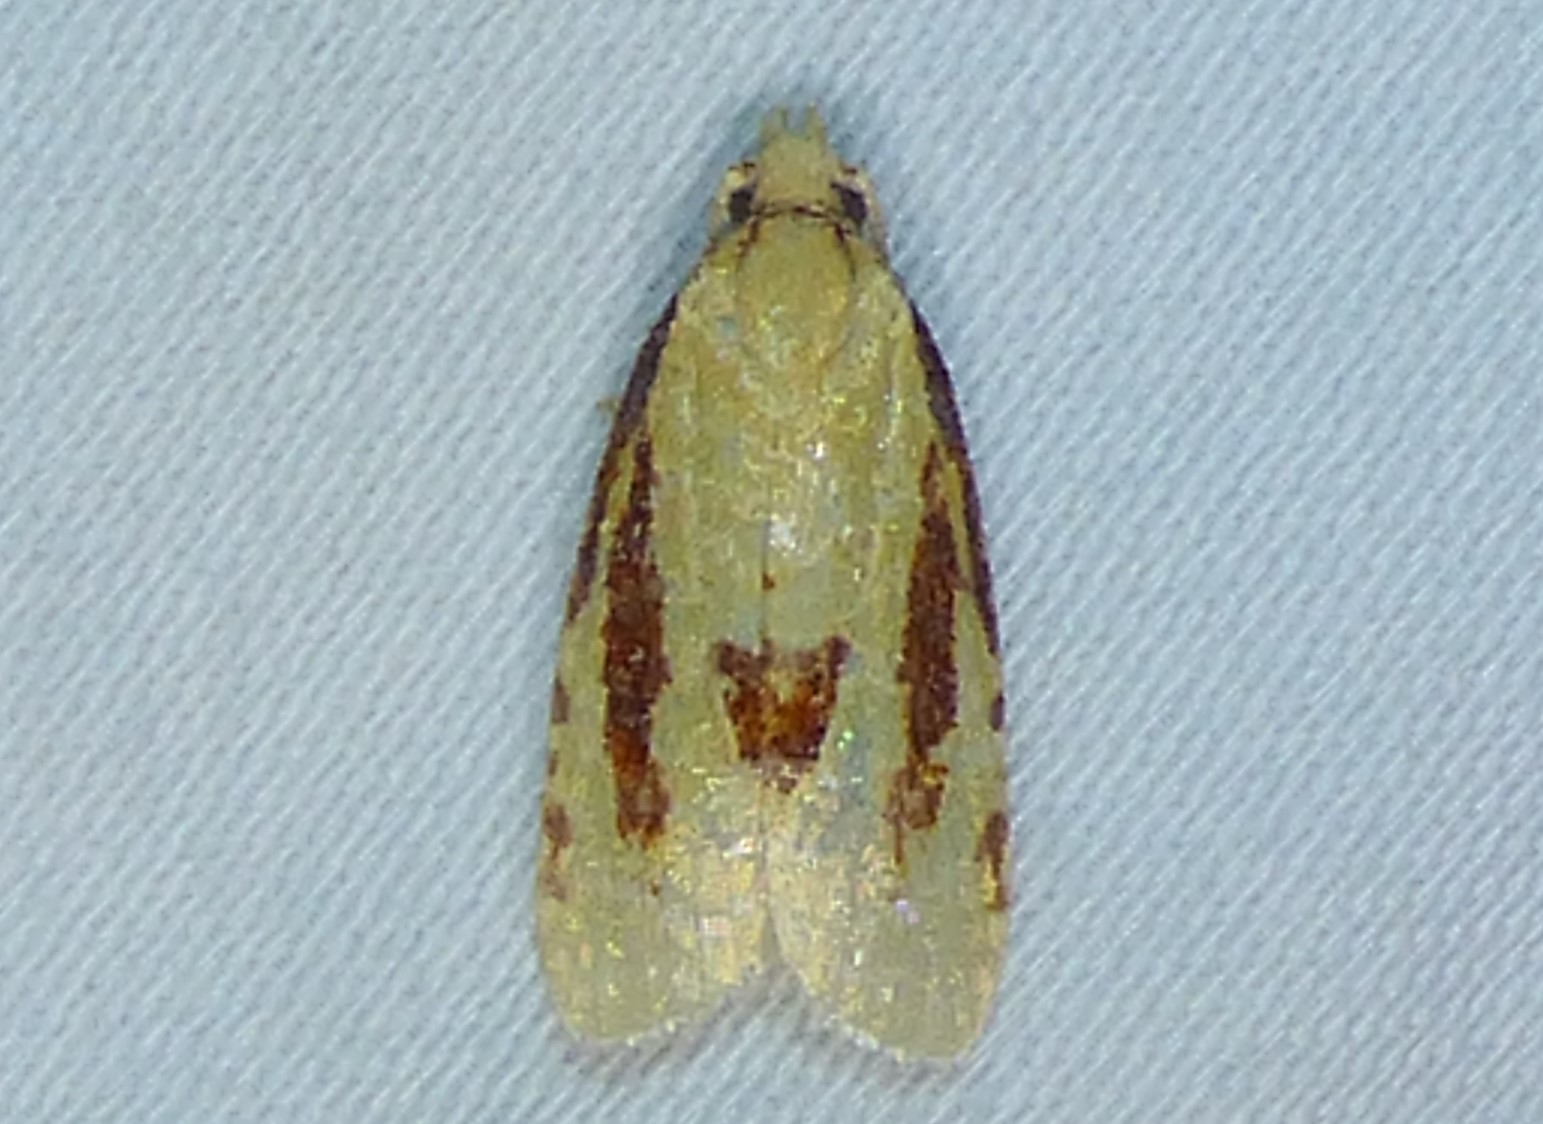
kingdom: Animalia
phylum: Arthropoda
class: Insecta
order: Lepidoptera
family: Tortricidae
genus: Sparganothis
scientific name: Sparganothis bistriata
